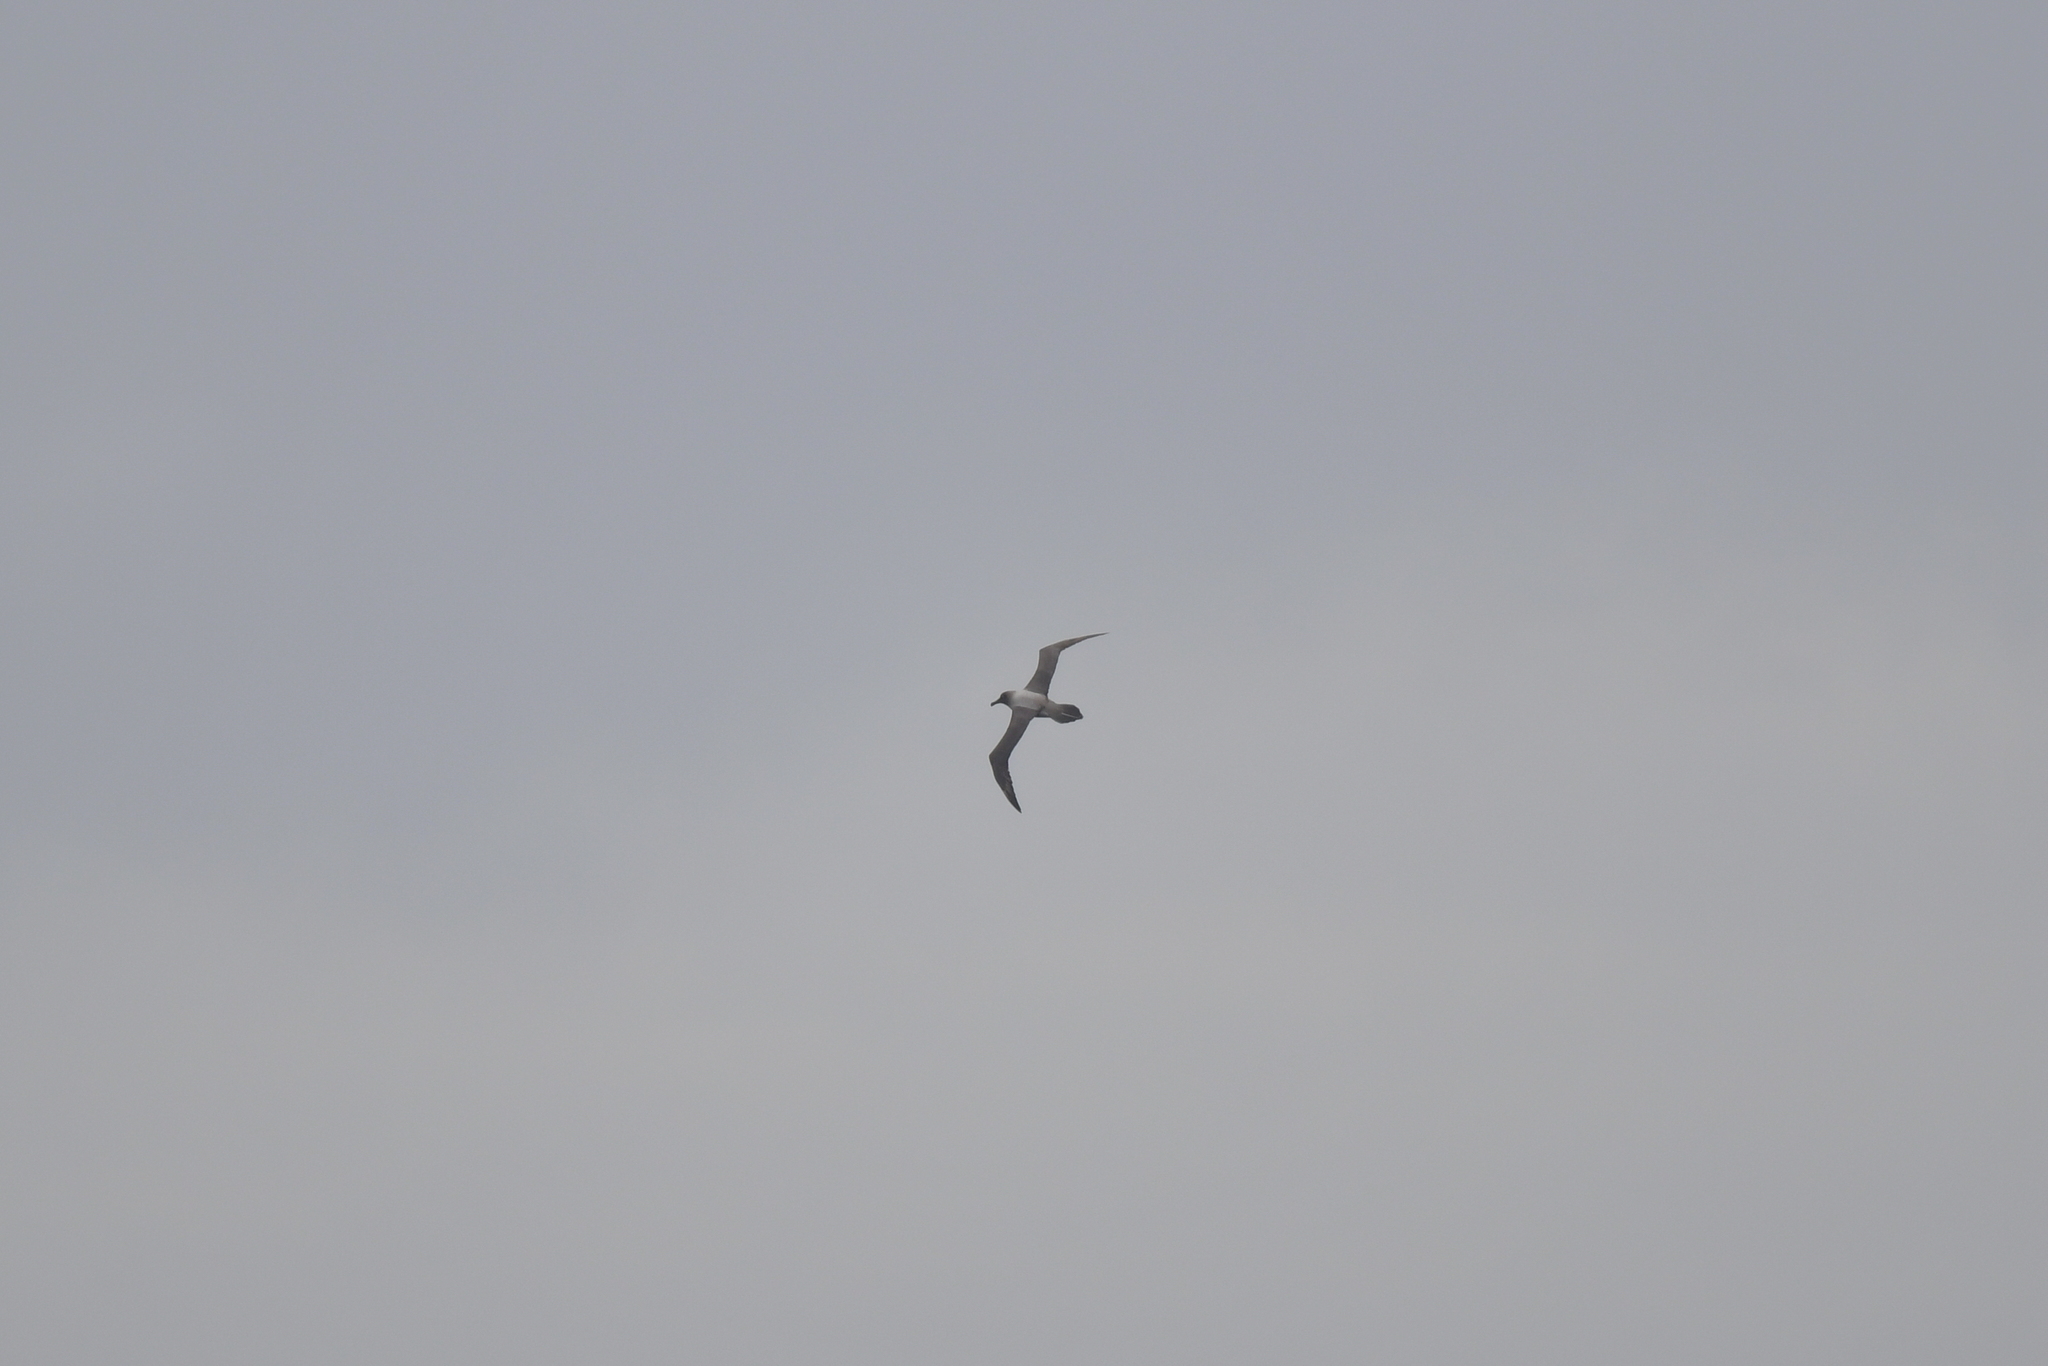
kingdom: Animalia
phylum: Chordata
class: Aves
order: Procellariiformes
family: Diomedeidae
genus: Phoebetria
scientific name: Phoebetria palpebrata
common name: Light-mantled albatross
